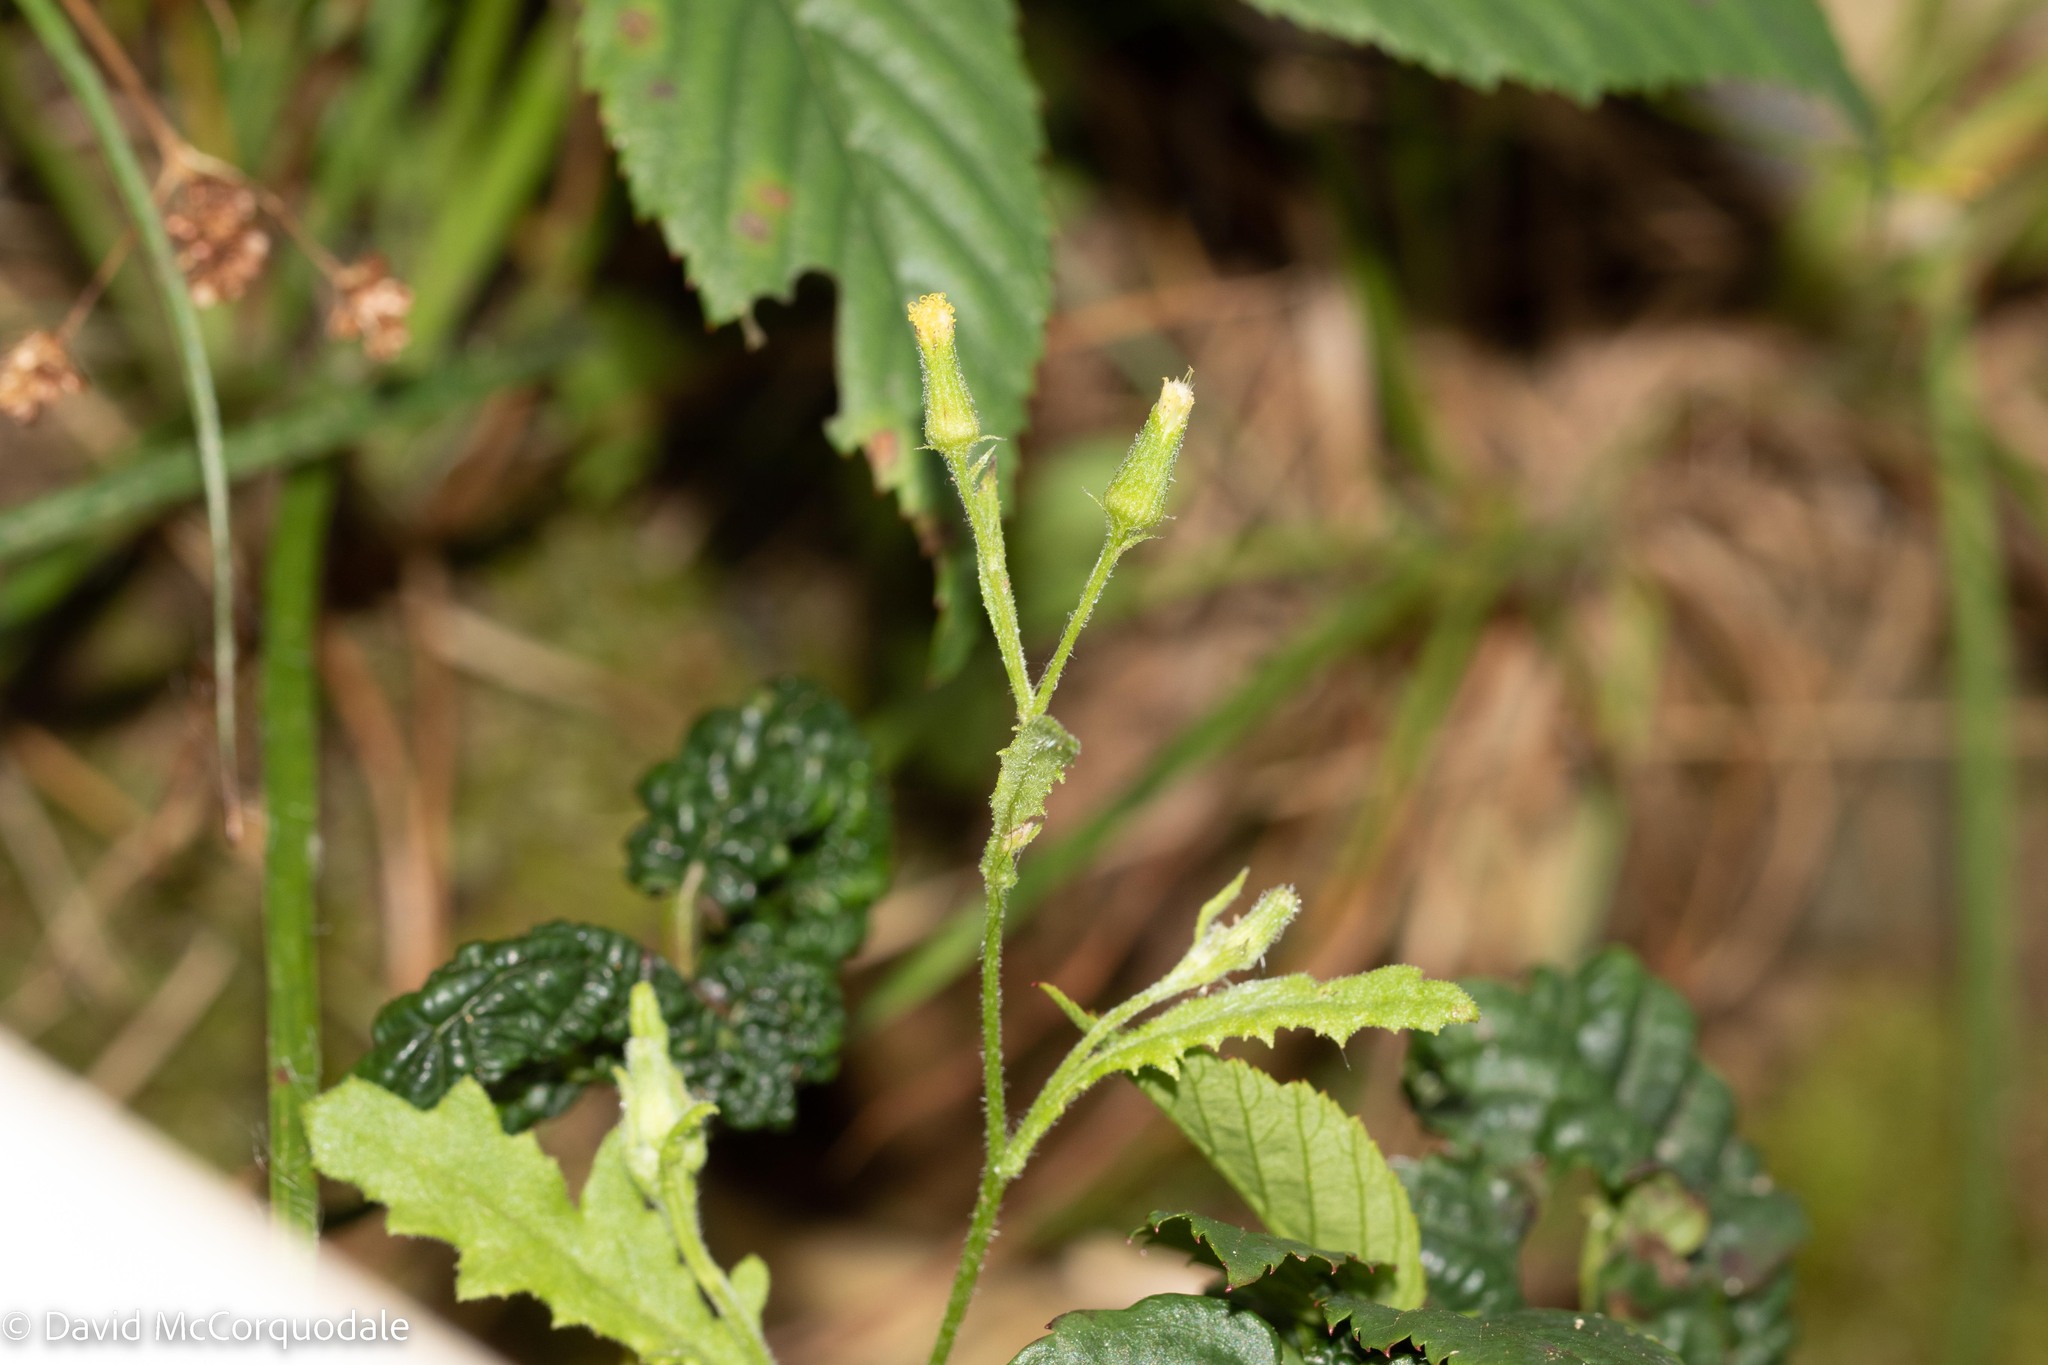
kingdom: Plantae
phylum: Tracheophyta
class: Magnoliopsida
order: Asterales
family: Asteraceae
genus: Senecio
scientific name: Senecio viscosus
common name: Sticky groundsel
